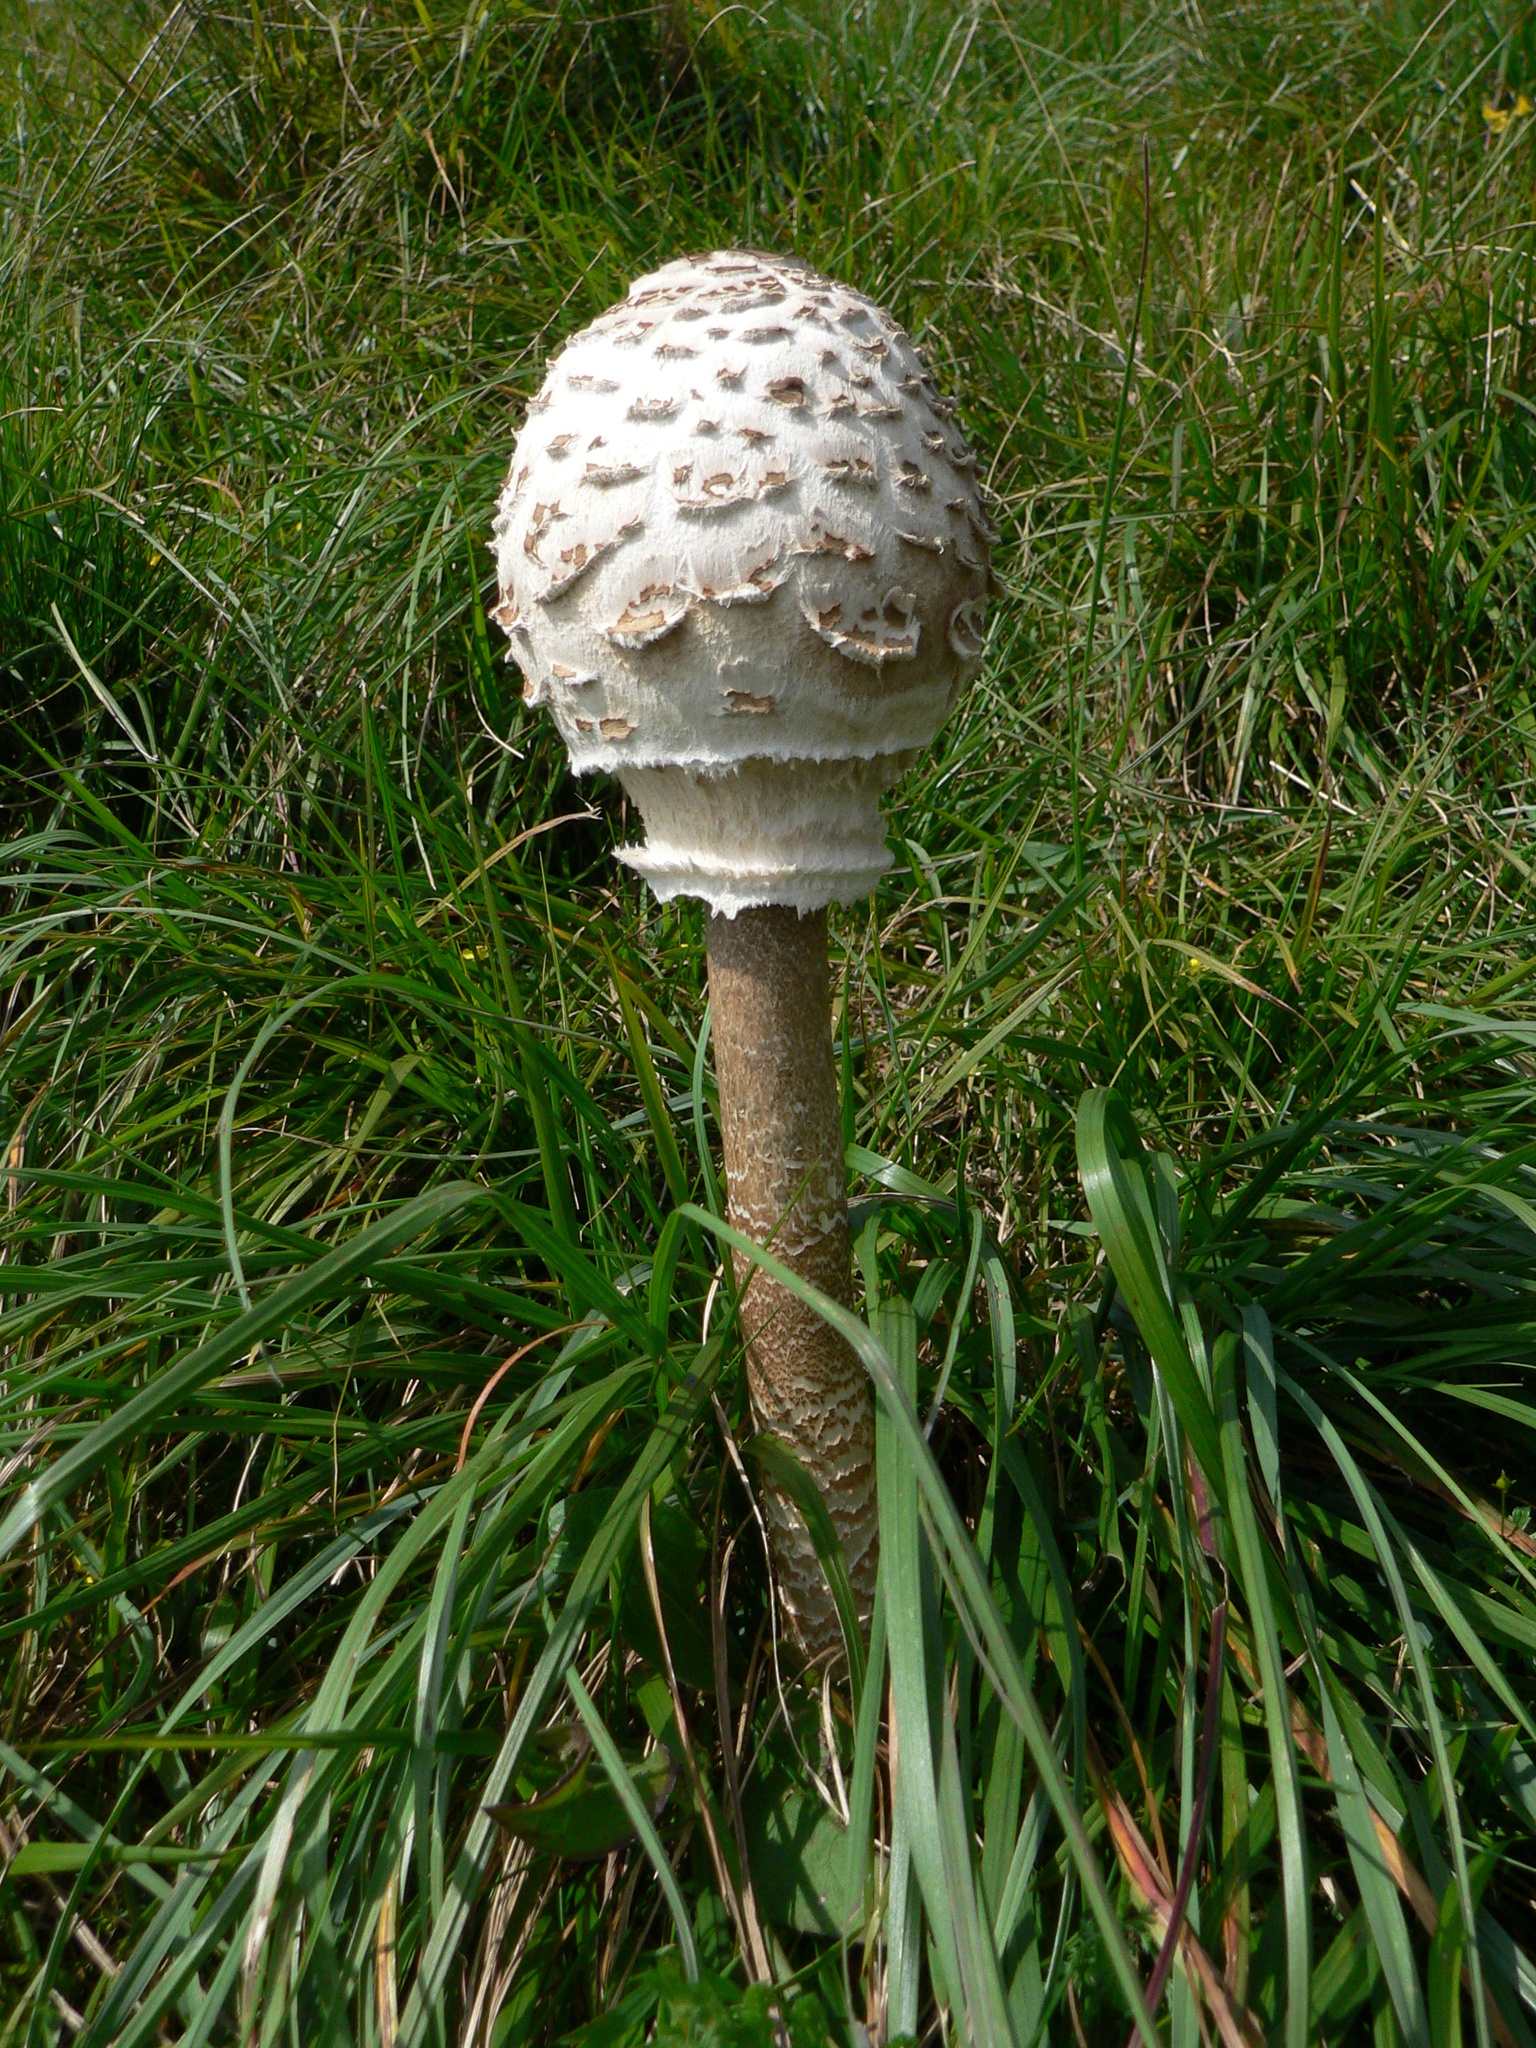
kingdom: Fungi
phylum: Basidiomycota
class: Agaricomycetes
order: Agaricales
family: Agaricaceae
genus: Macrolepiota
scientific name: Macrolepiota procera
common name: Parasol
